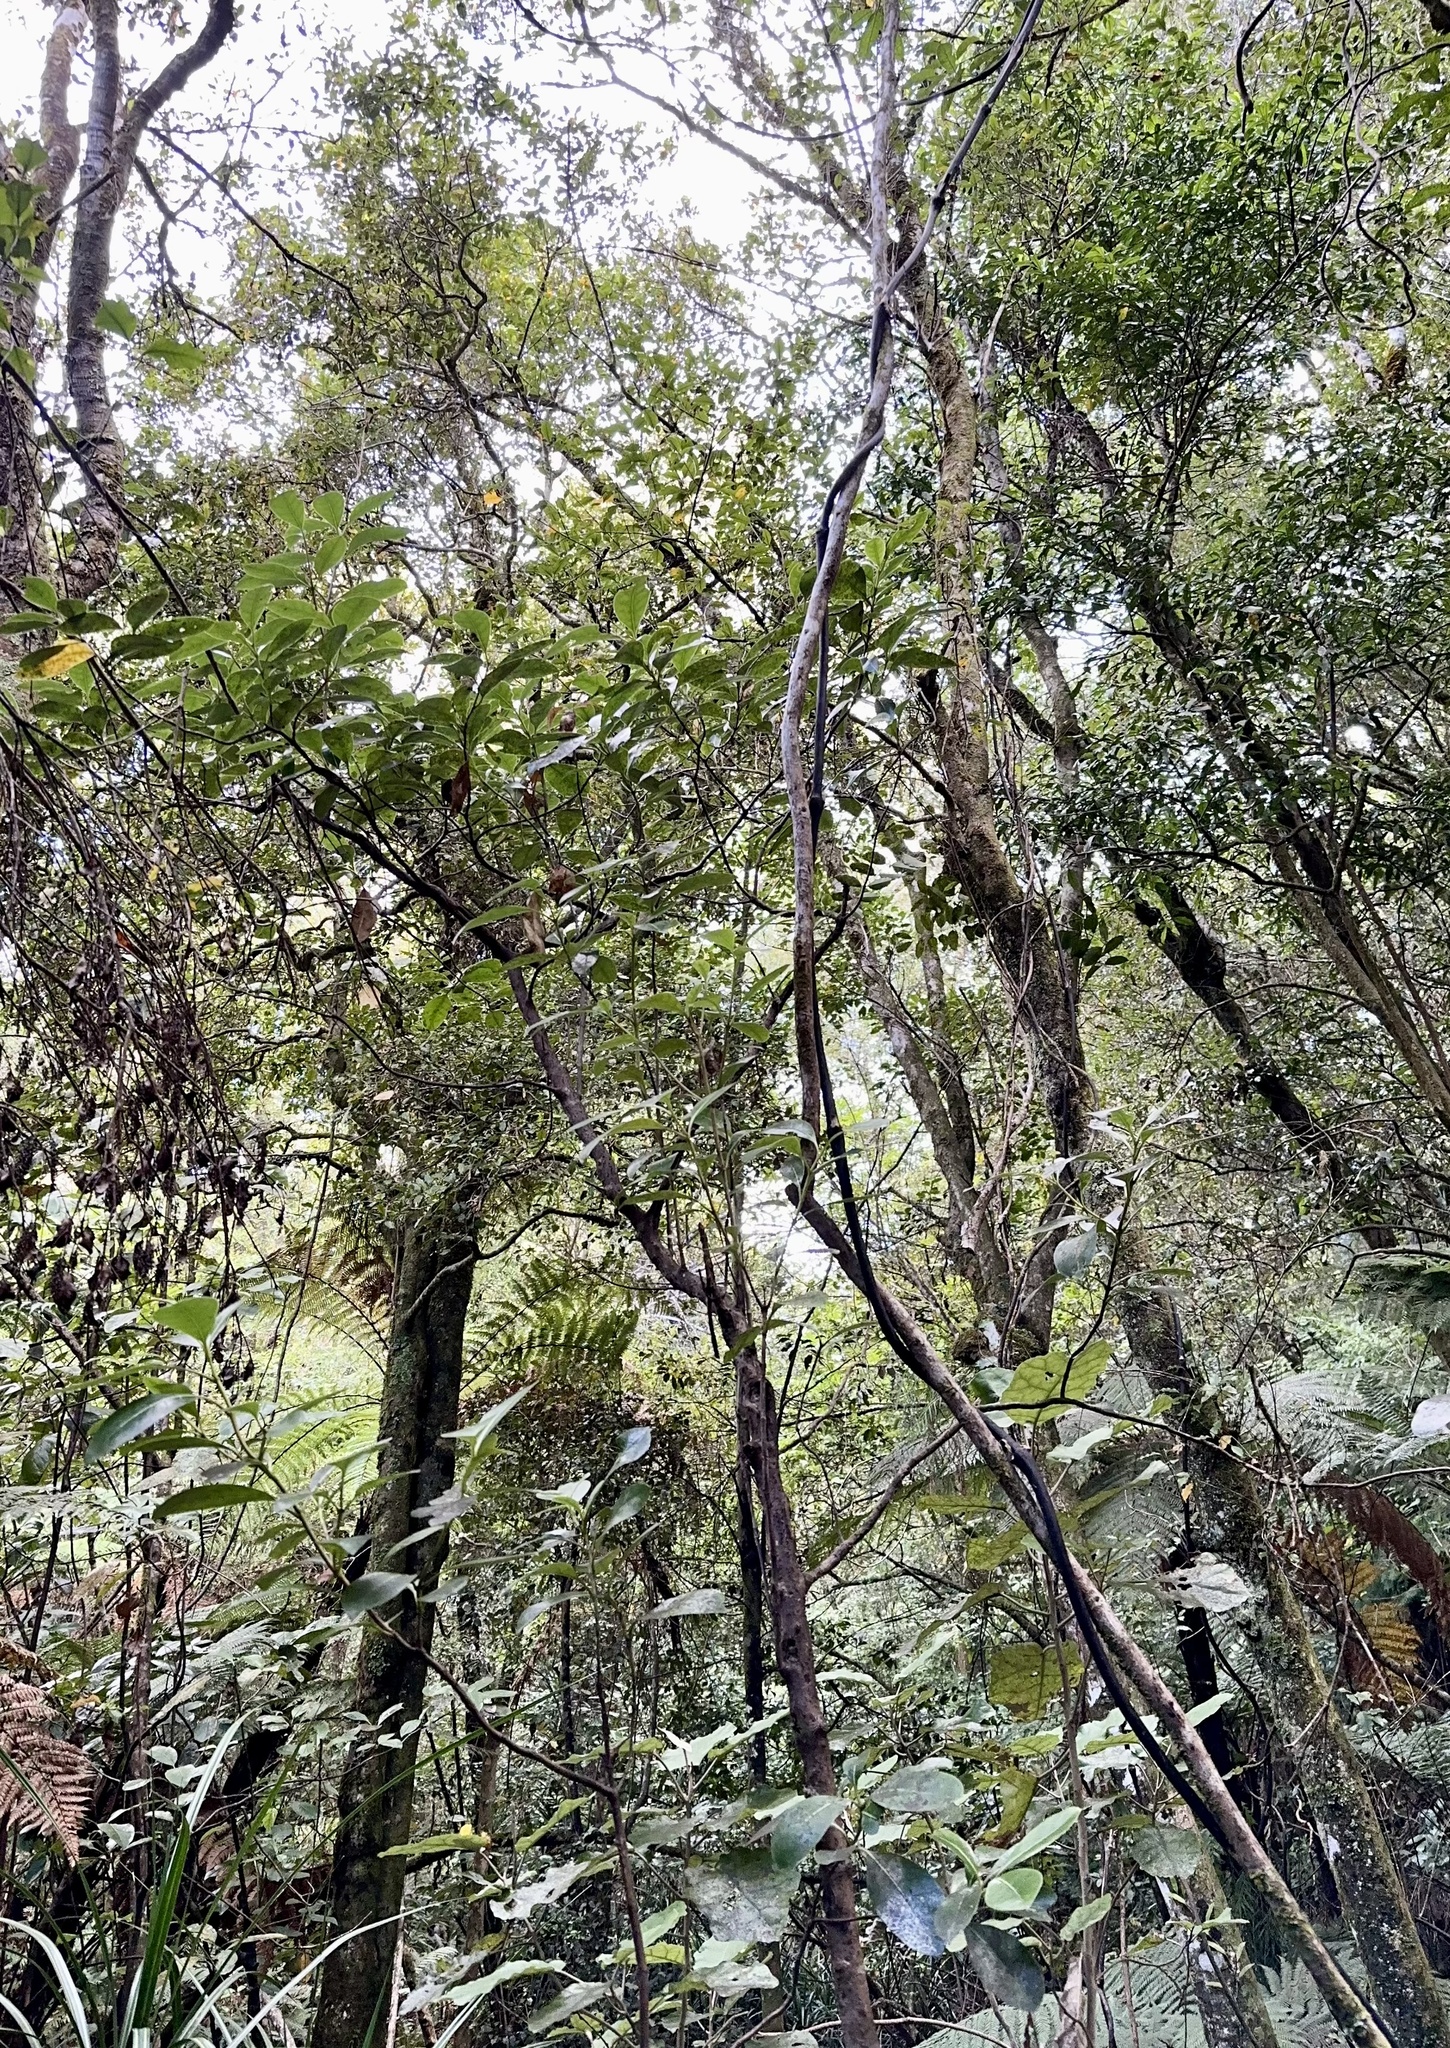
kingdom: Plantae
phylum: Tracheophyta
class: Magnoliopsida
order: Gentianales
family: Rubiaceae
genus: Coprosma
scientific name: Coprosma lucida
